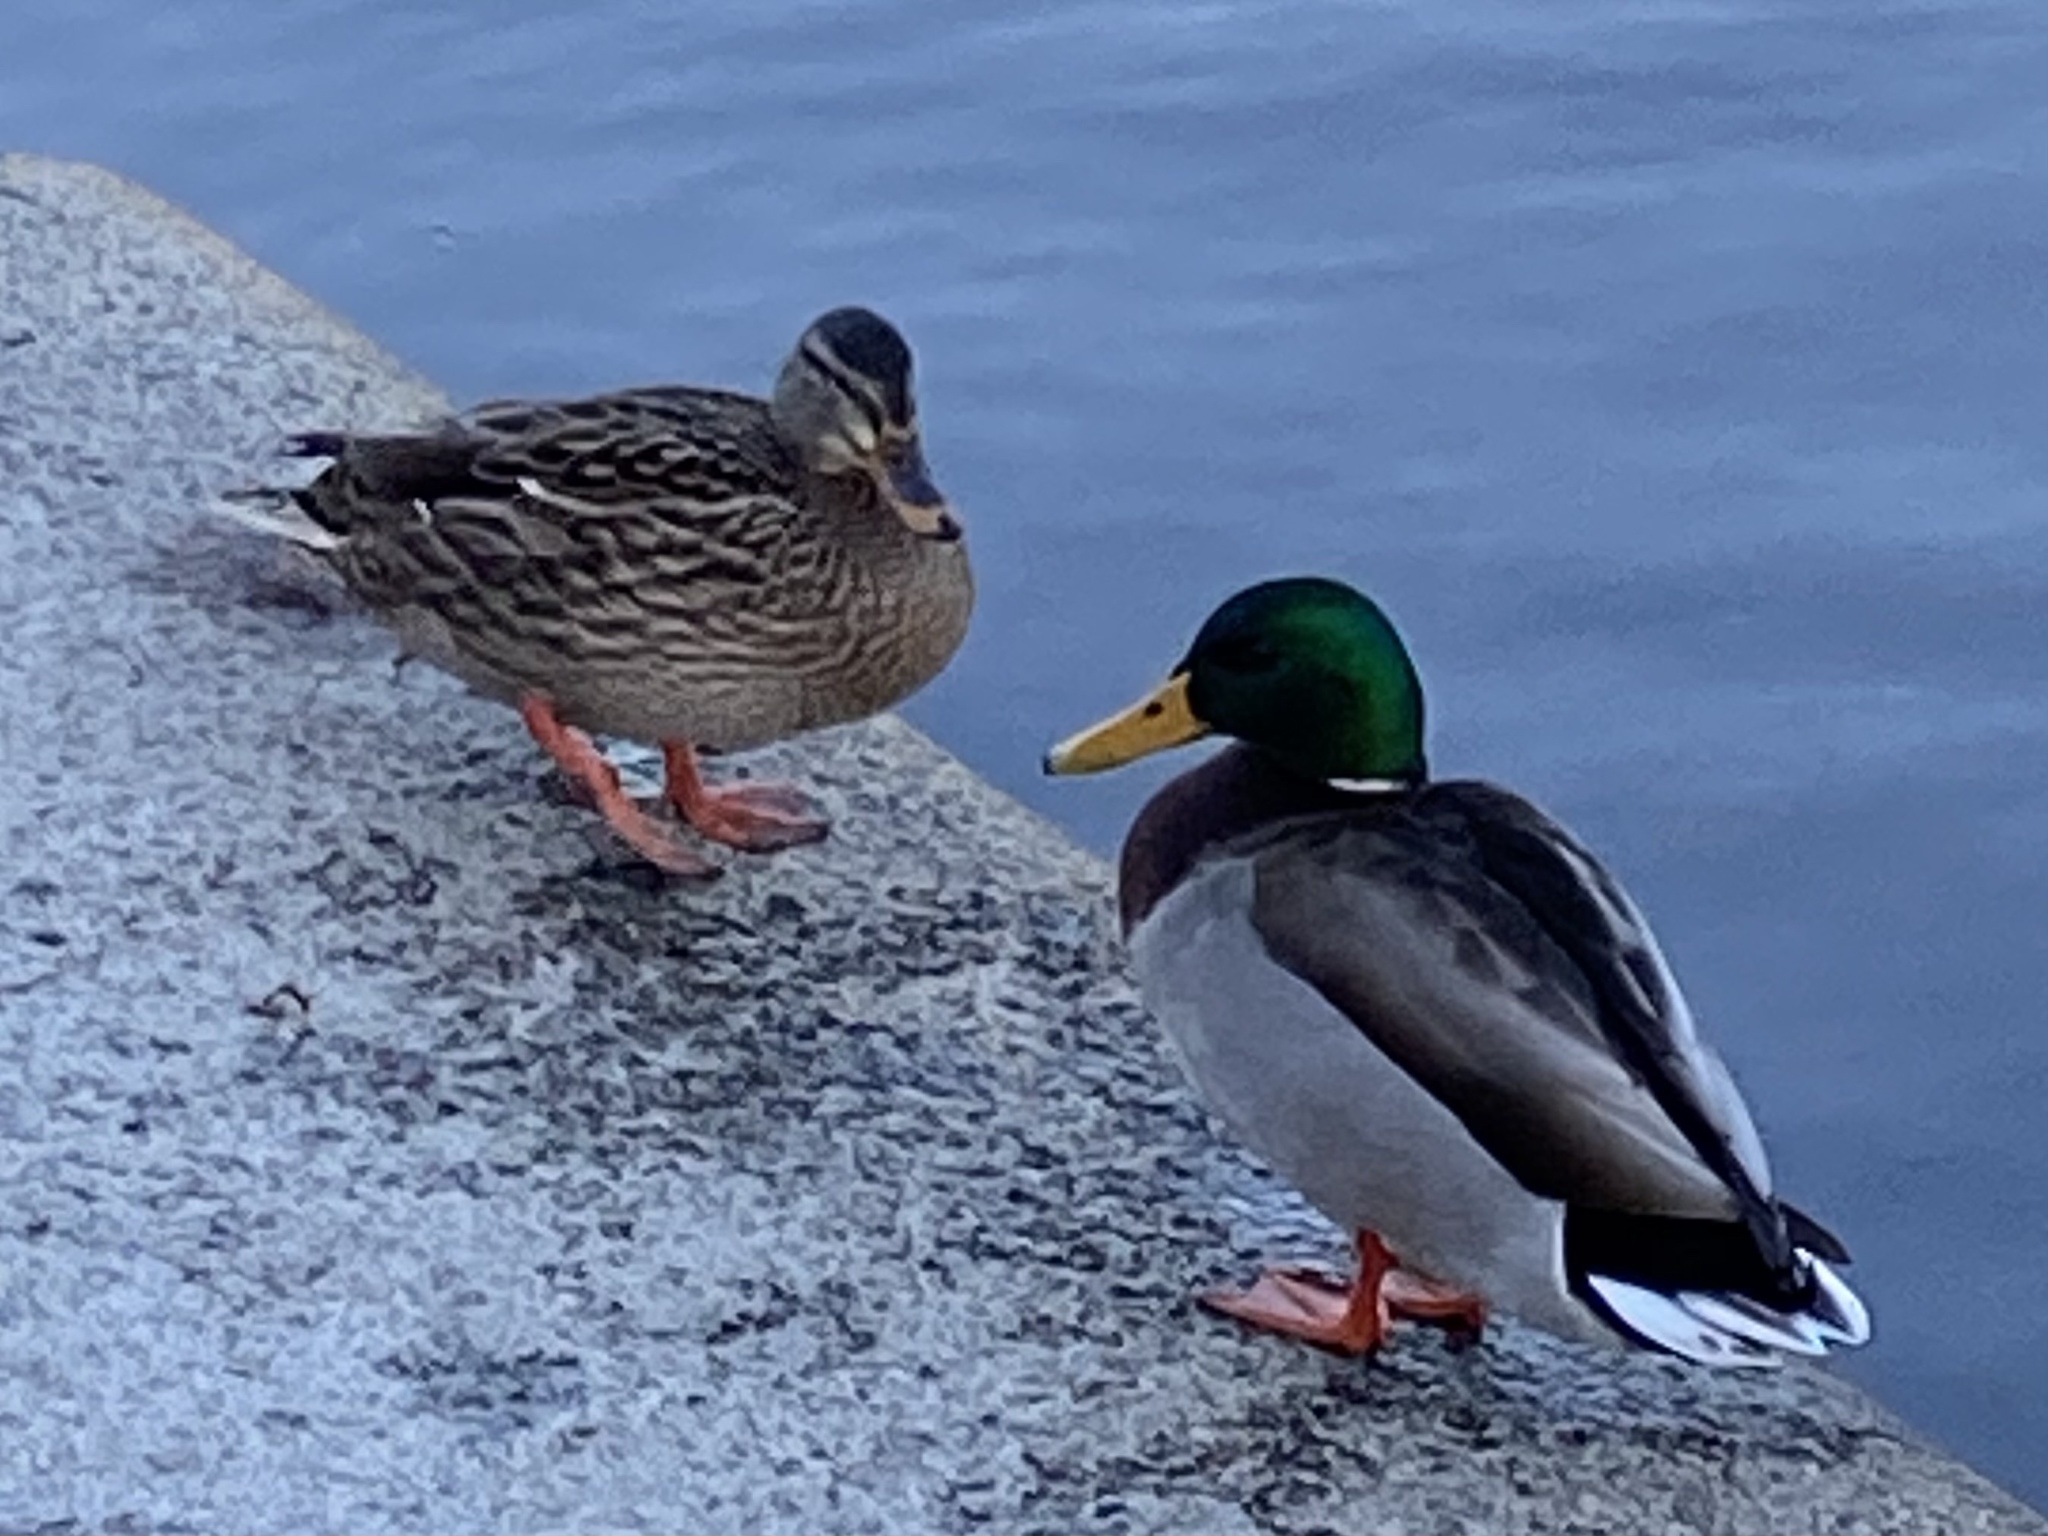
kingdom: Animalia
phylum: Chordata
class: Aves
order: Anseriformes
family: Anatidae
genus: Anas
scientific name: Anas platyrhynchos
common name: Mallard
